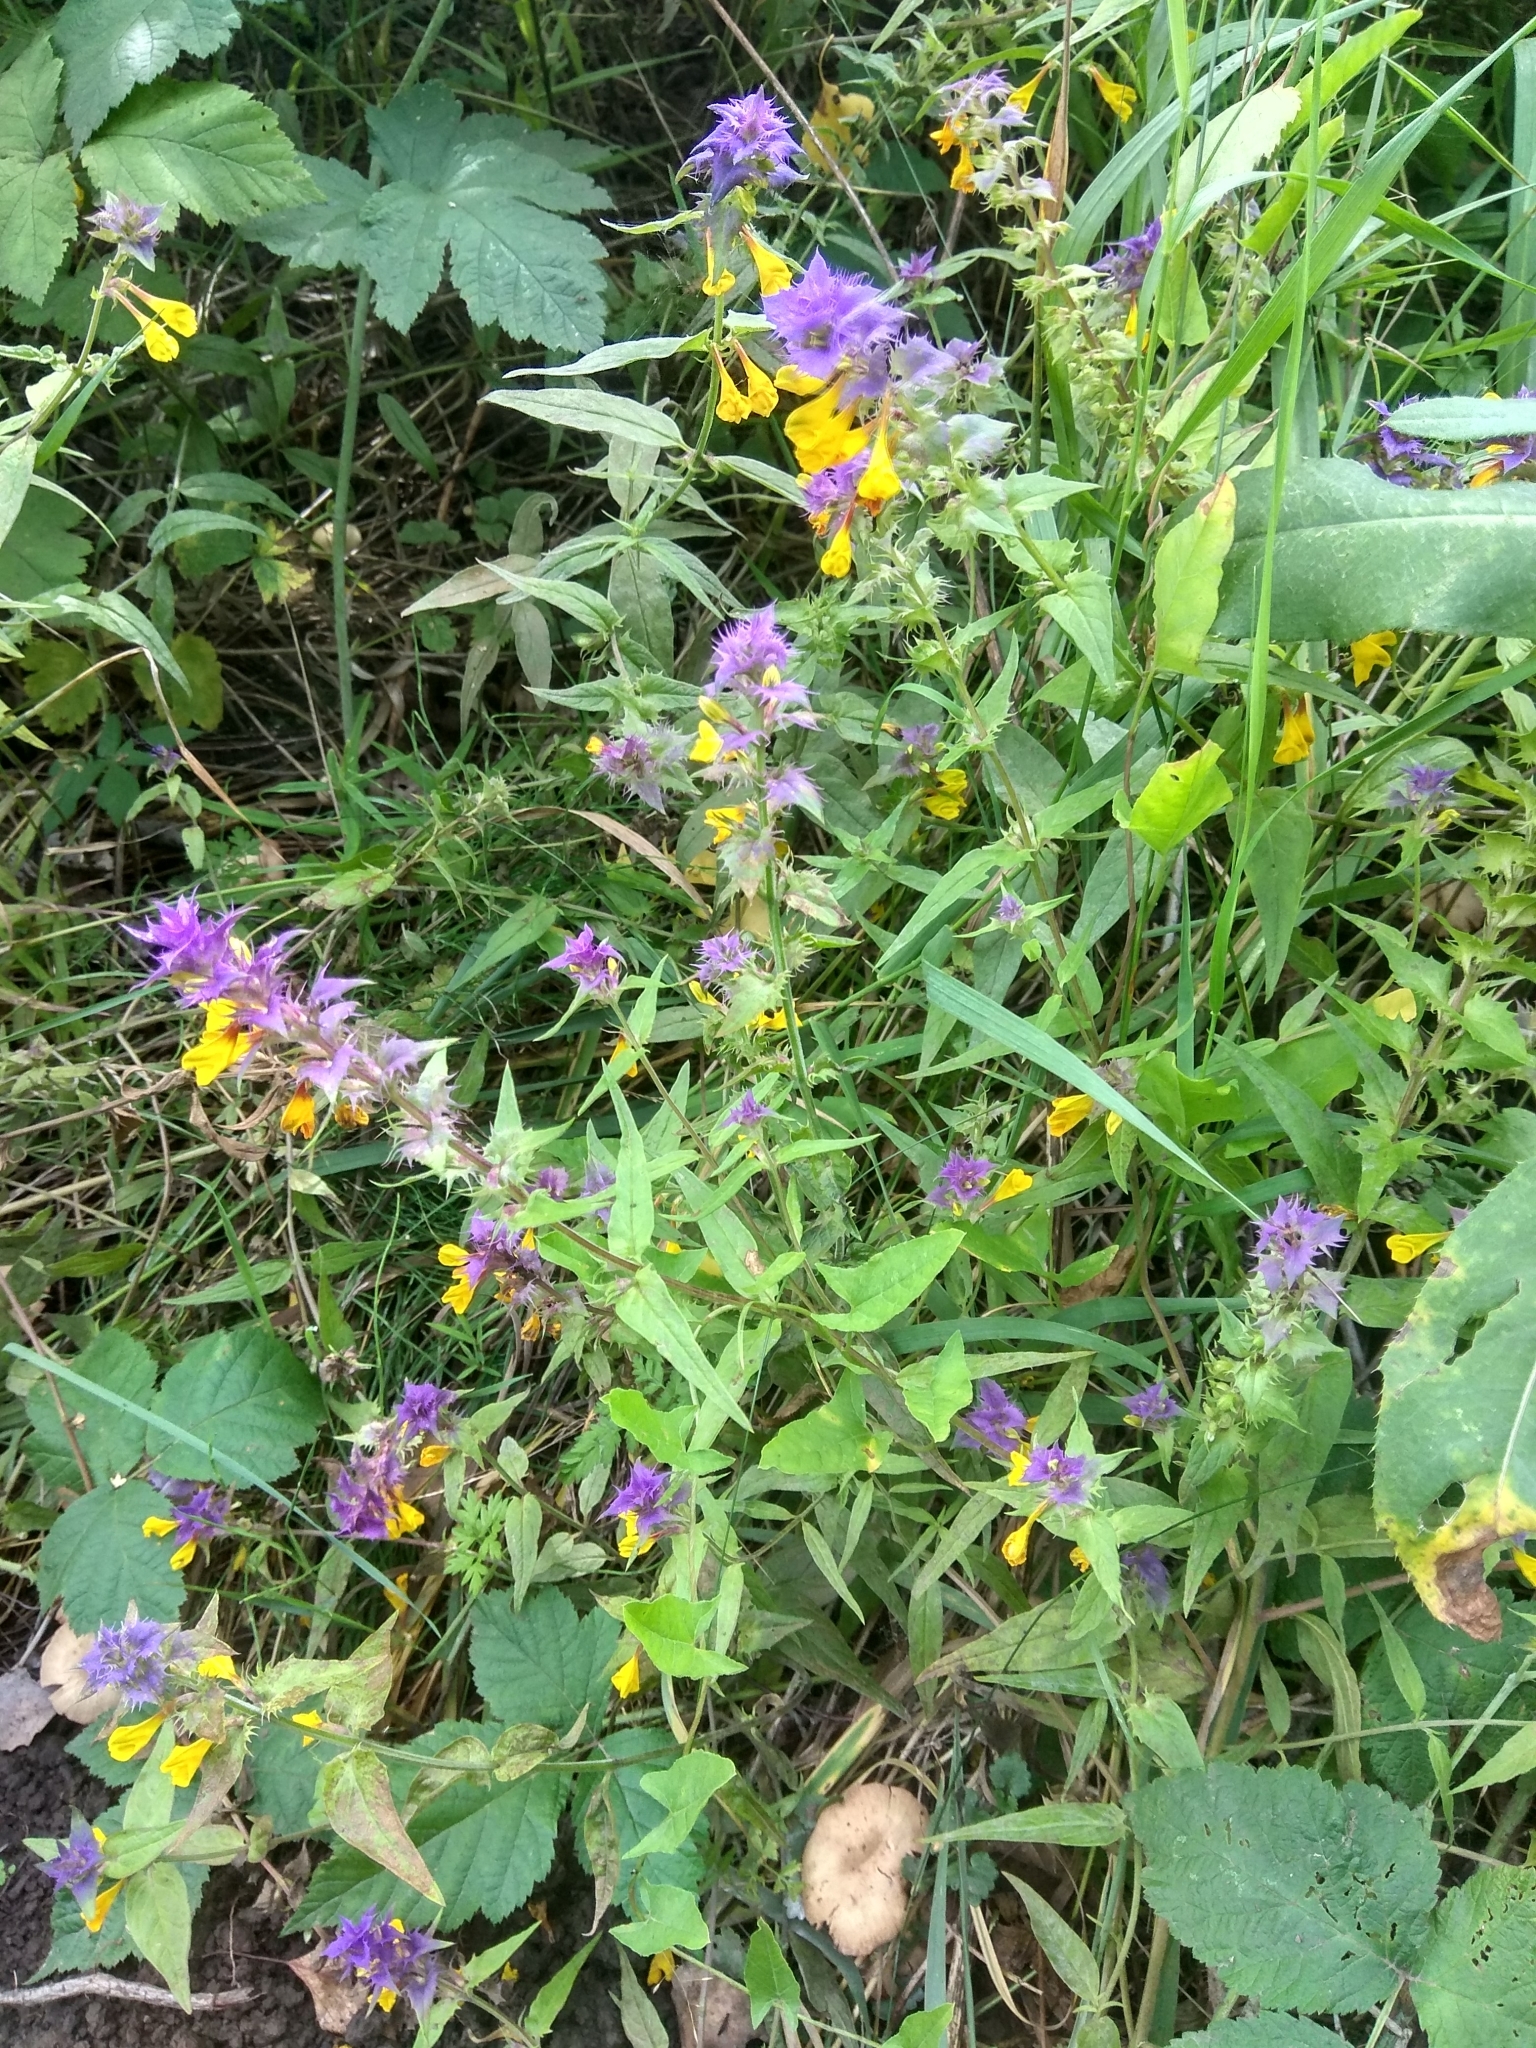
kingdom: Plantae
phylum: Tracheophyta
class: Magnoliopsida
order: Lamiales
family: Orobanchaceae
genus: Melampyrum
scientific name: Melampyrum nemorosum
